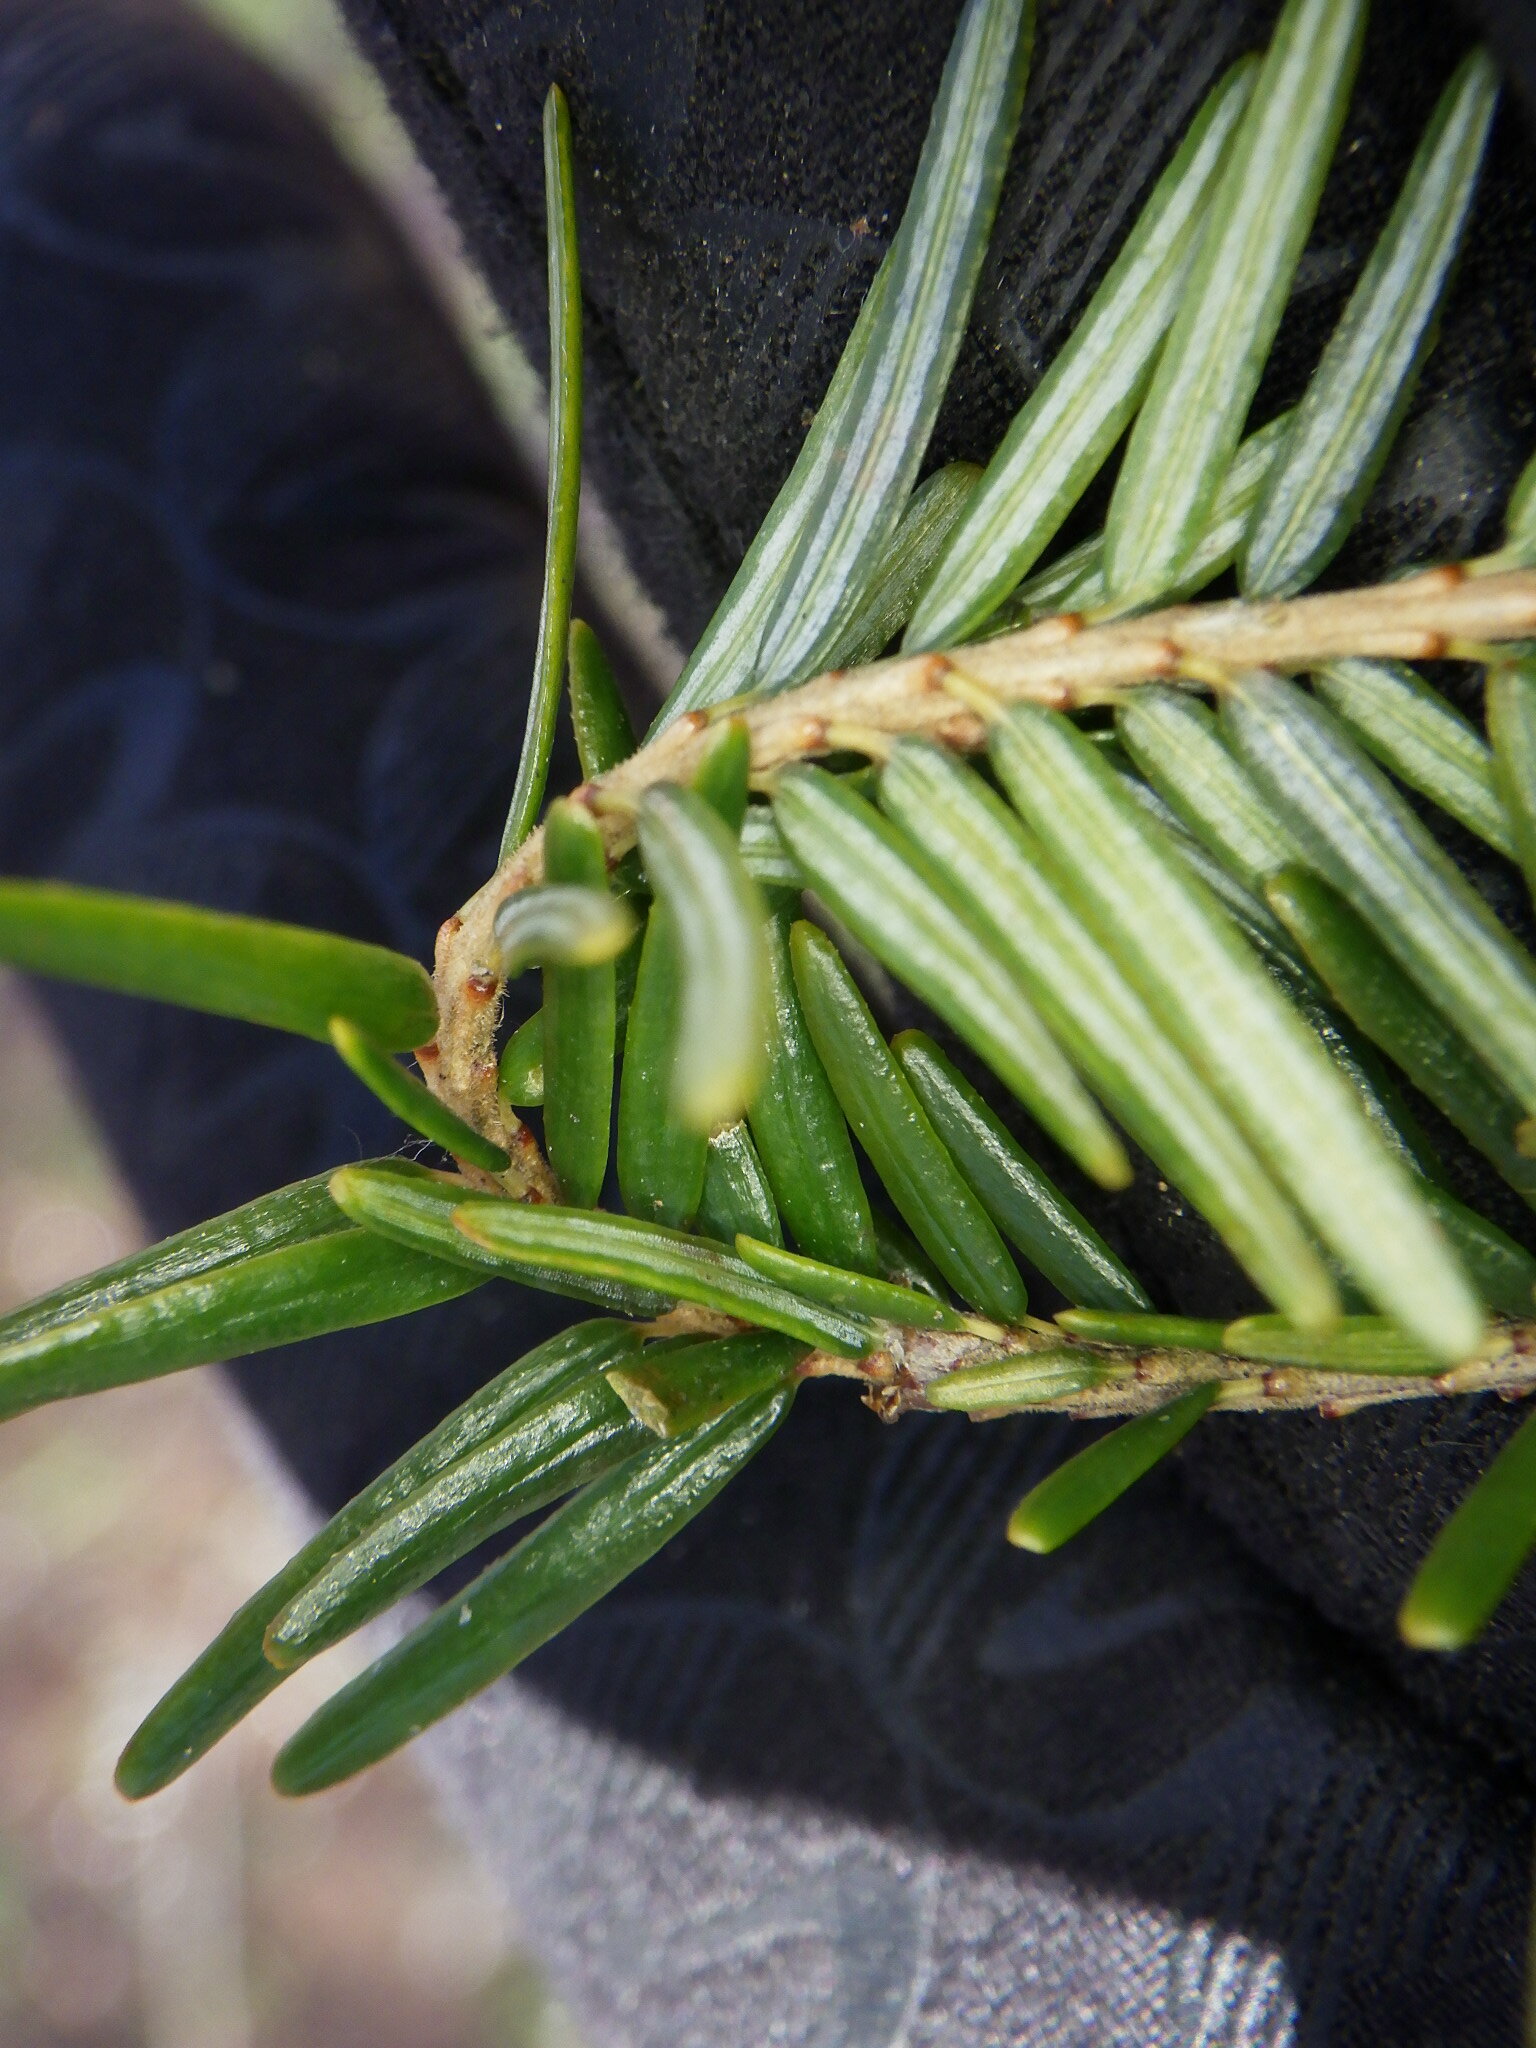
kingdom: Plantae
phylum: Tracheophyta
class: Pinopsida
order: Pinales
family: Pinaceae
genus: Tsuga
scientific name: Tsuga canadensis
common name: Eastern hemlock
